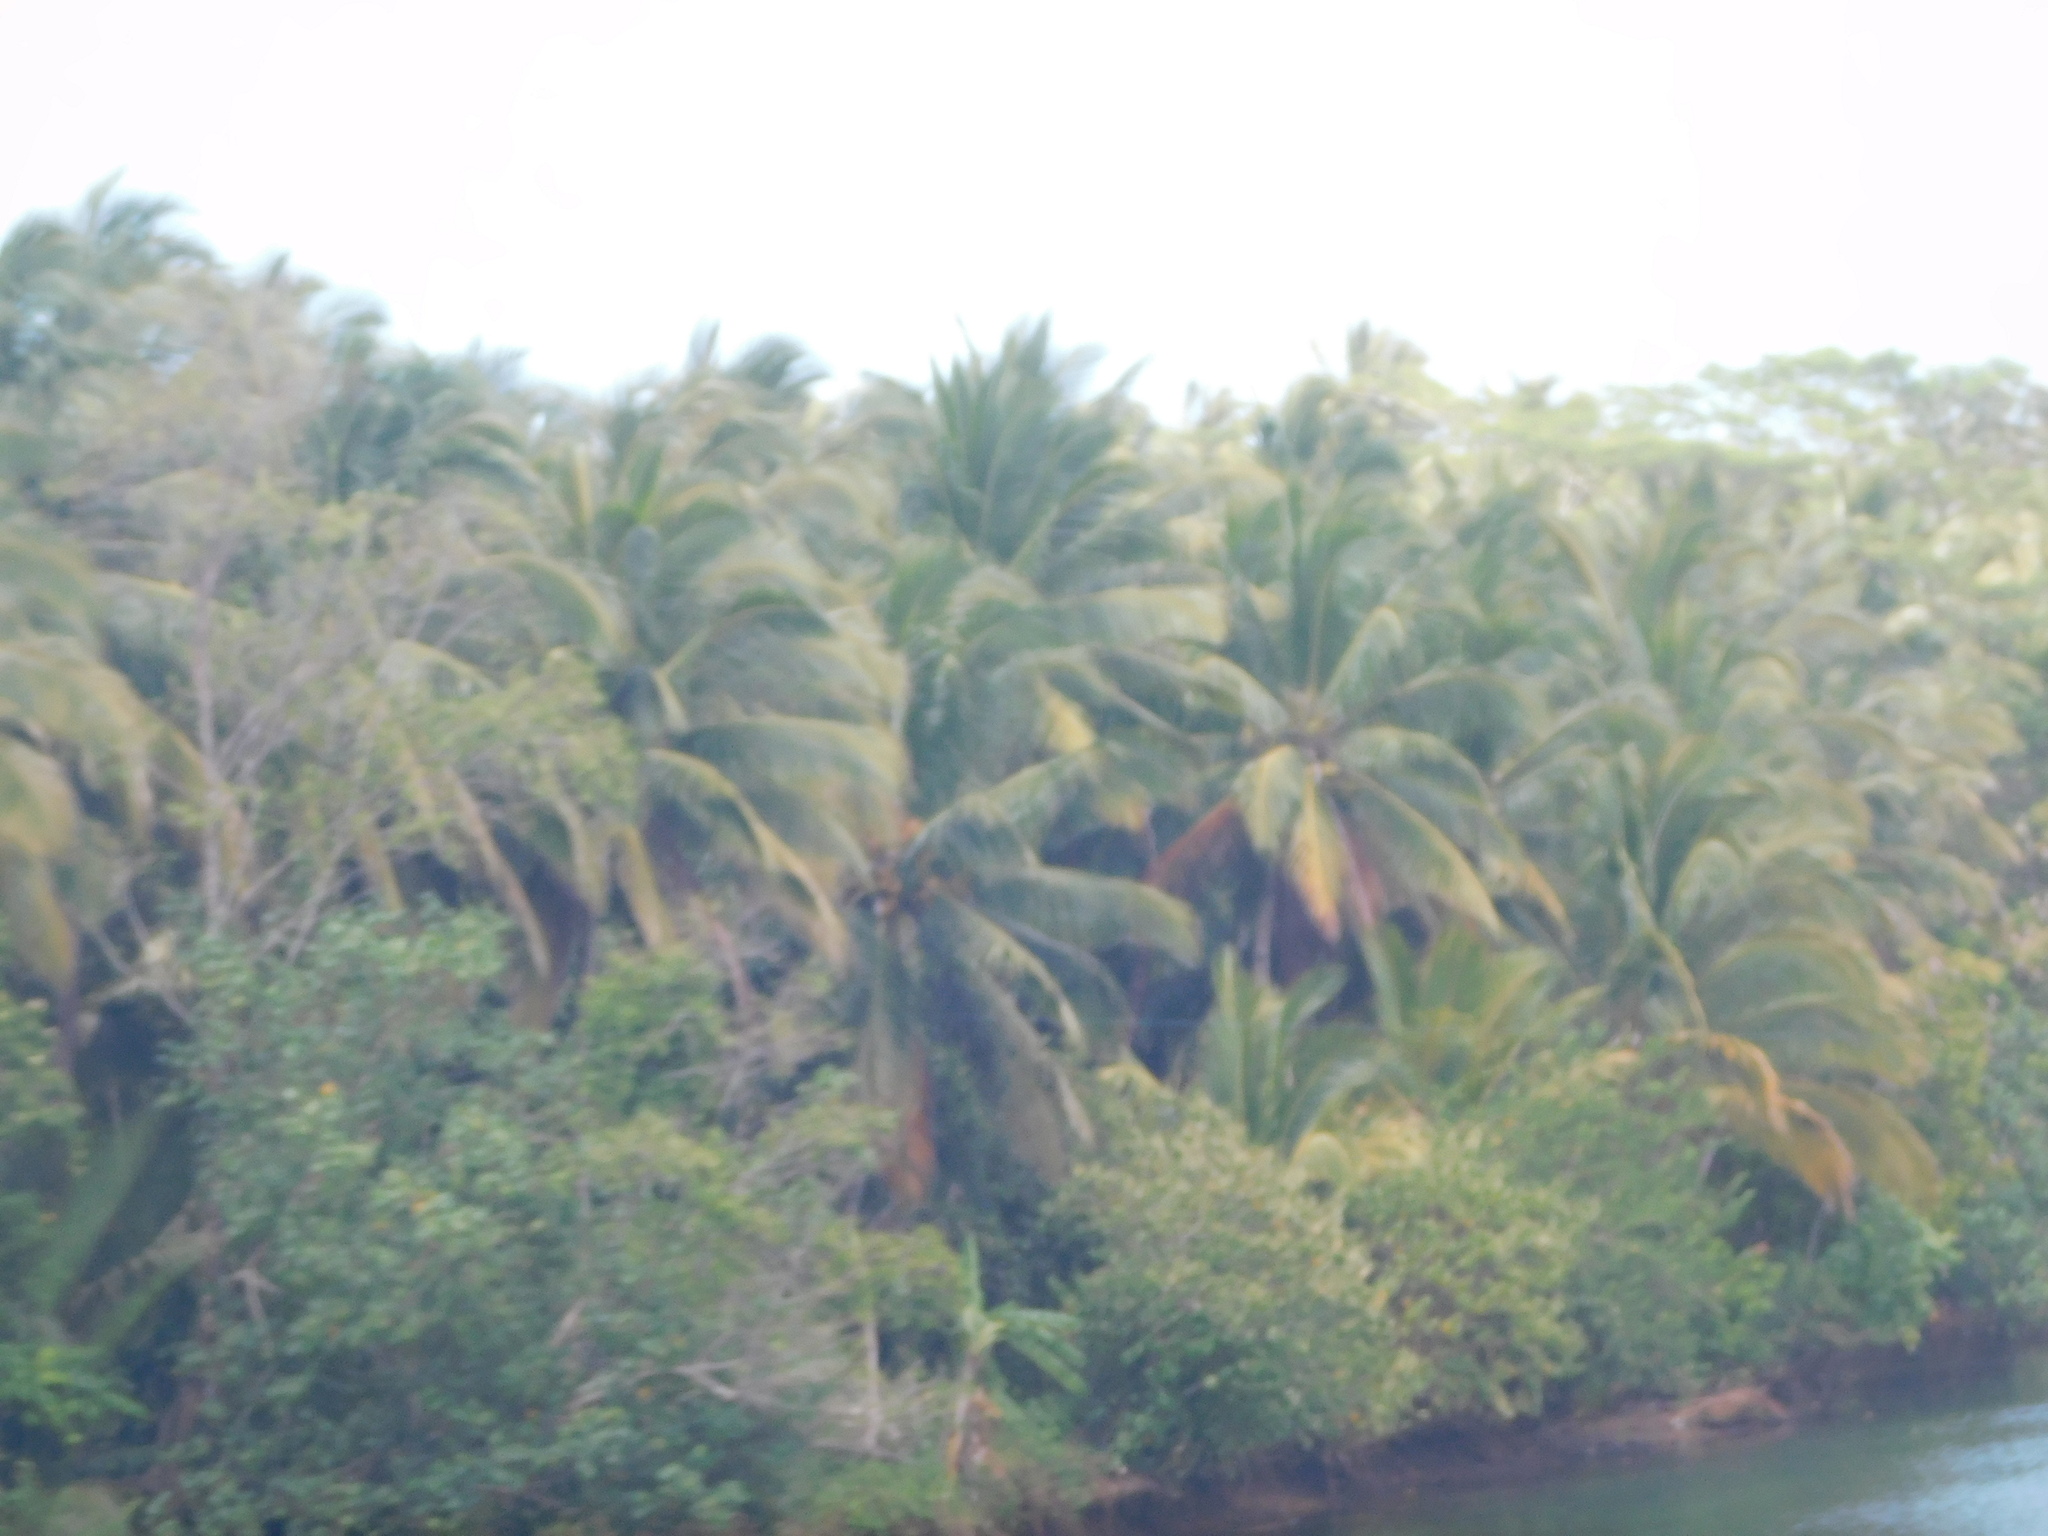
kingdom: Plantae
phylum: Tracheophyta
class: Liliopsida
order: Arecales
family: Arecaceae
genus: Cocos
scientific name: Cocos nucifera
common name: Coconut palm
